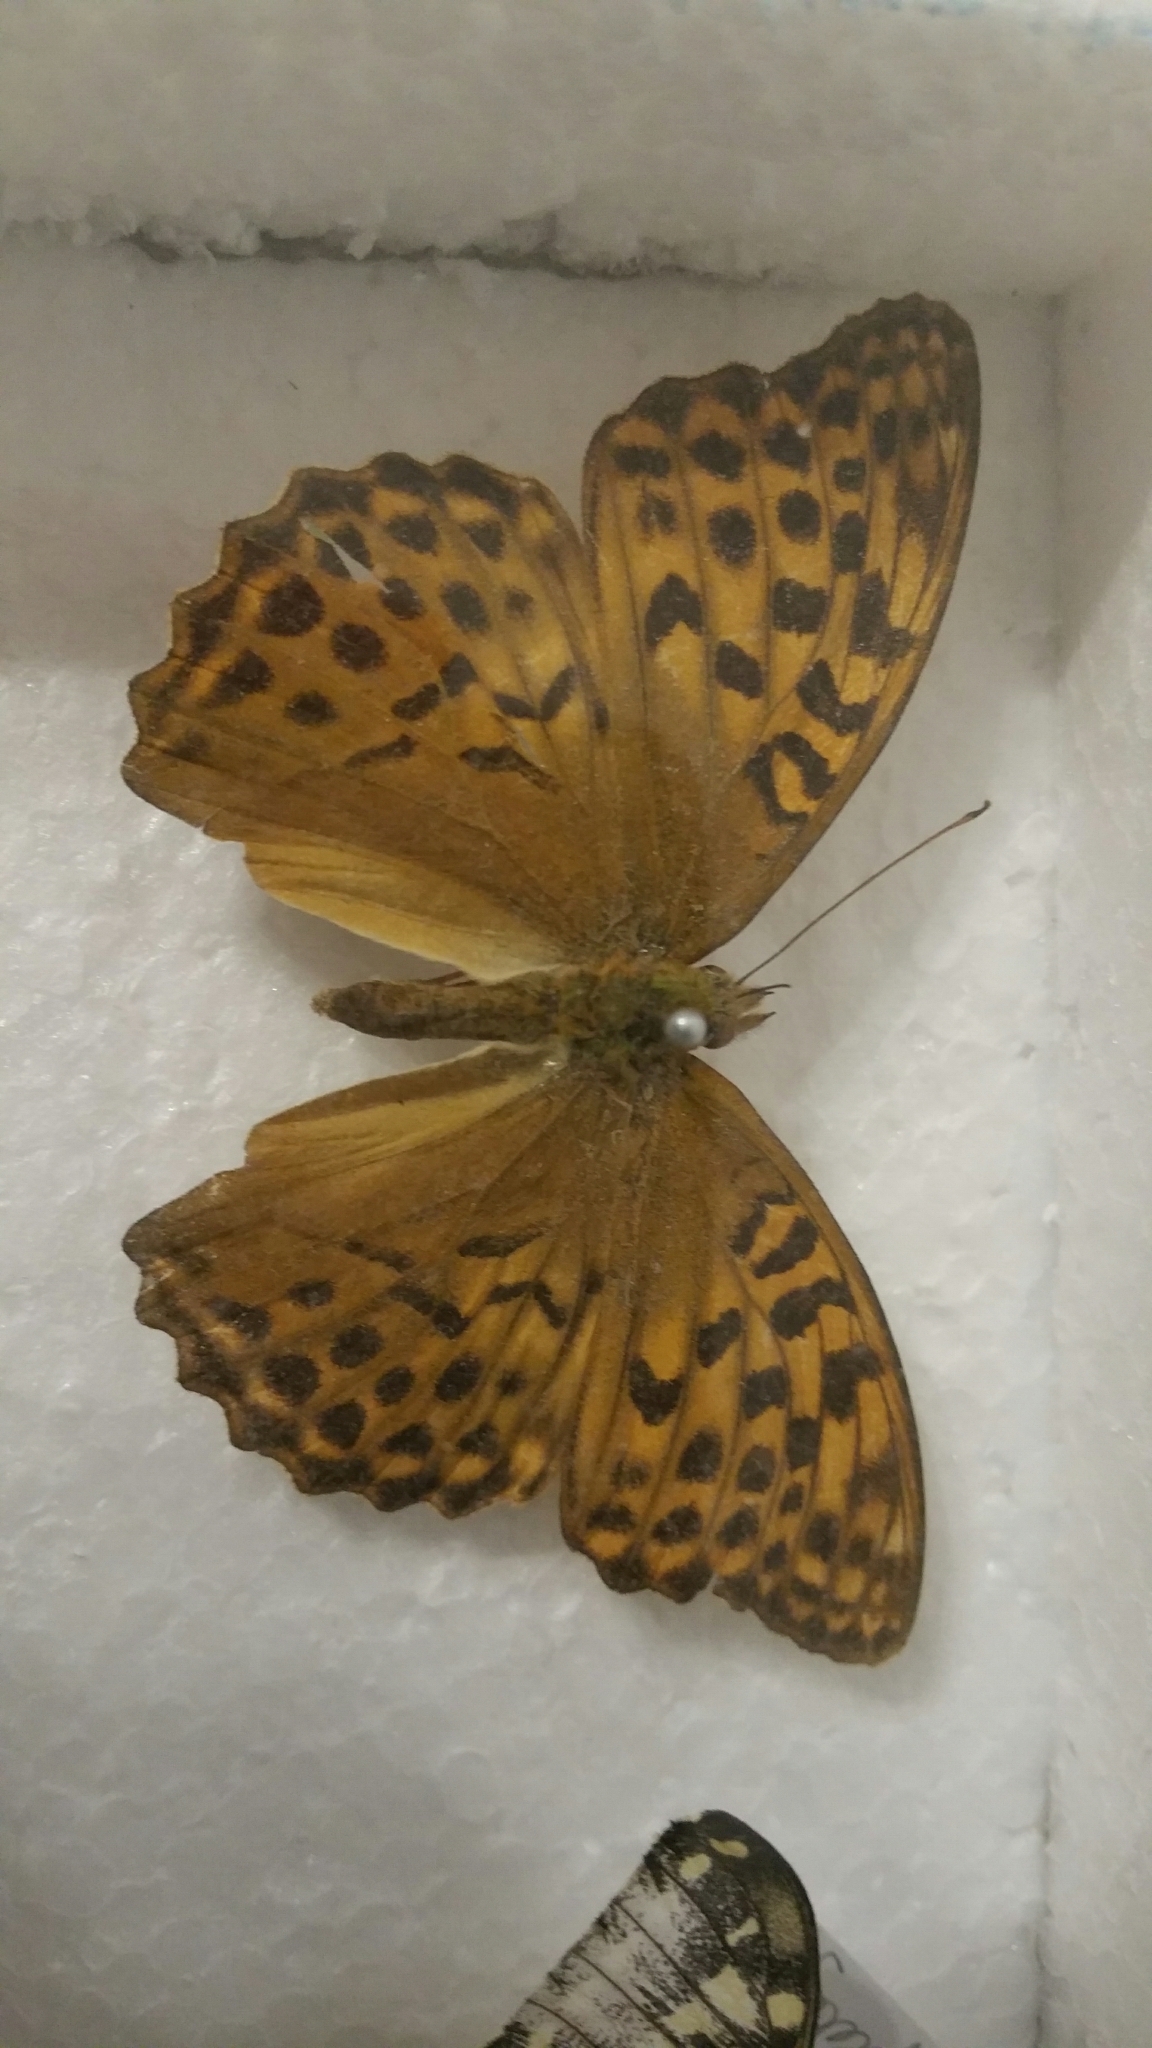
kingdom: Animalia
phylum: Arthropoda
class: Insecta
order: Lepidoptera
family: Nymphalidae
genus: Argynnis
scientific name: Argynnis paphia
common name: Silver-washed fritillary
